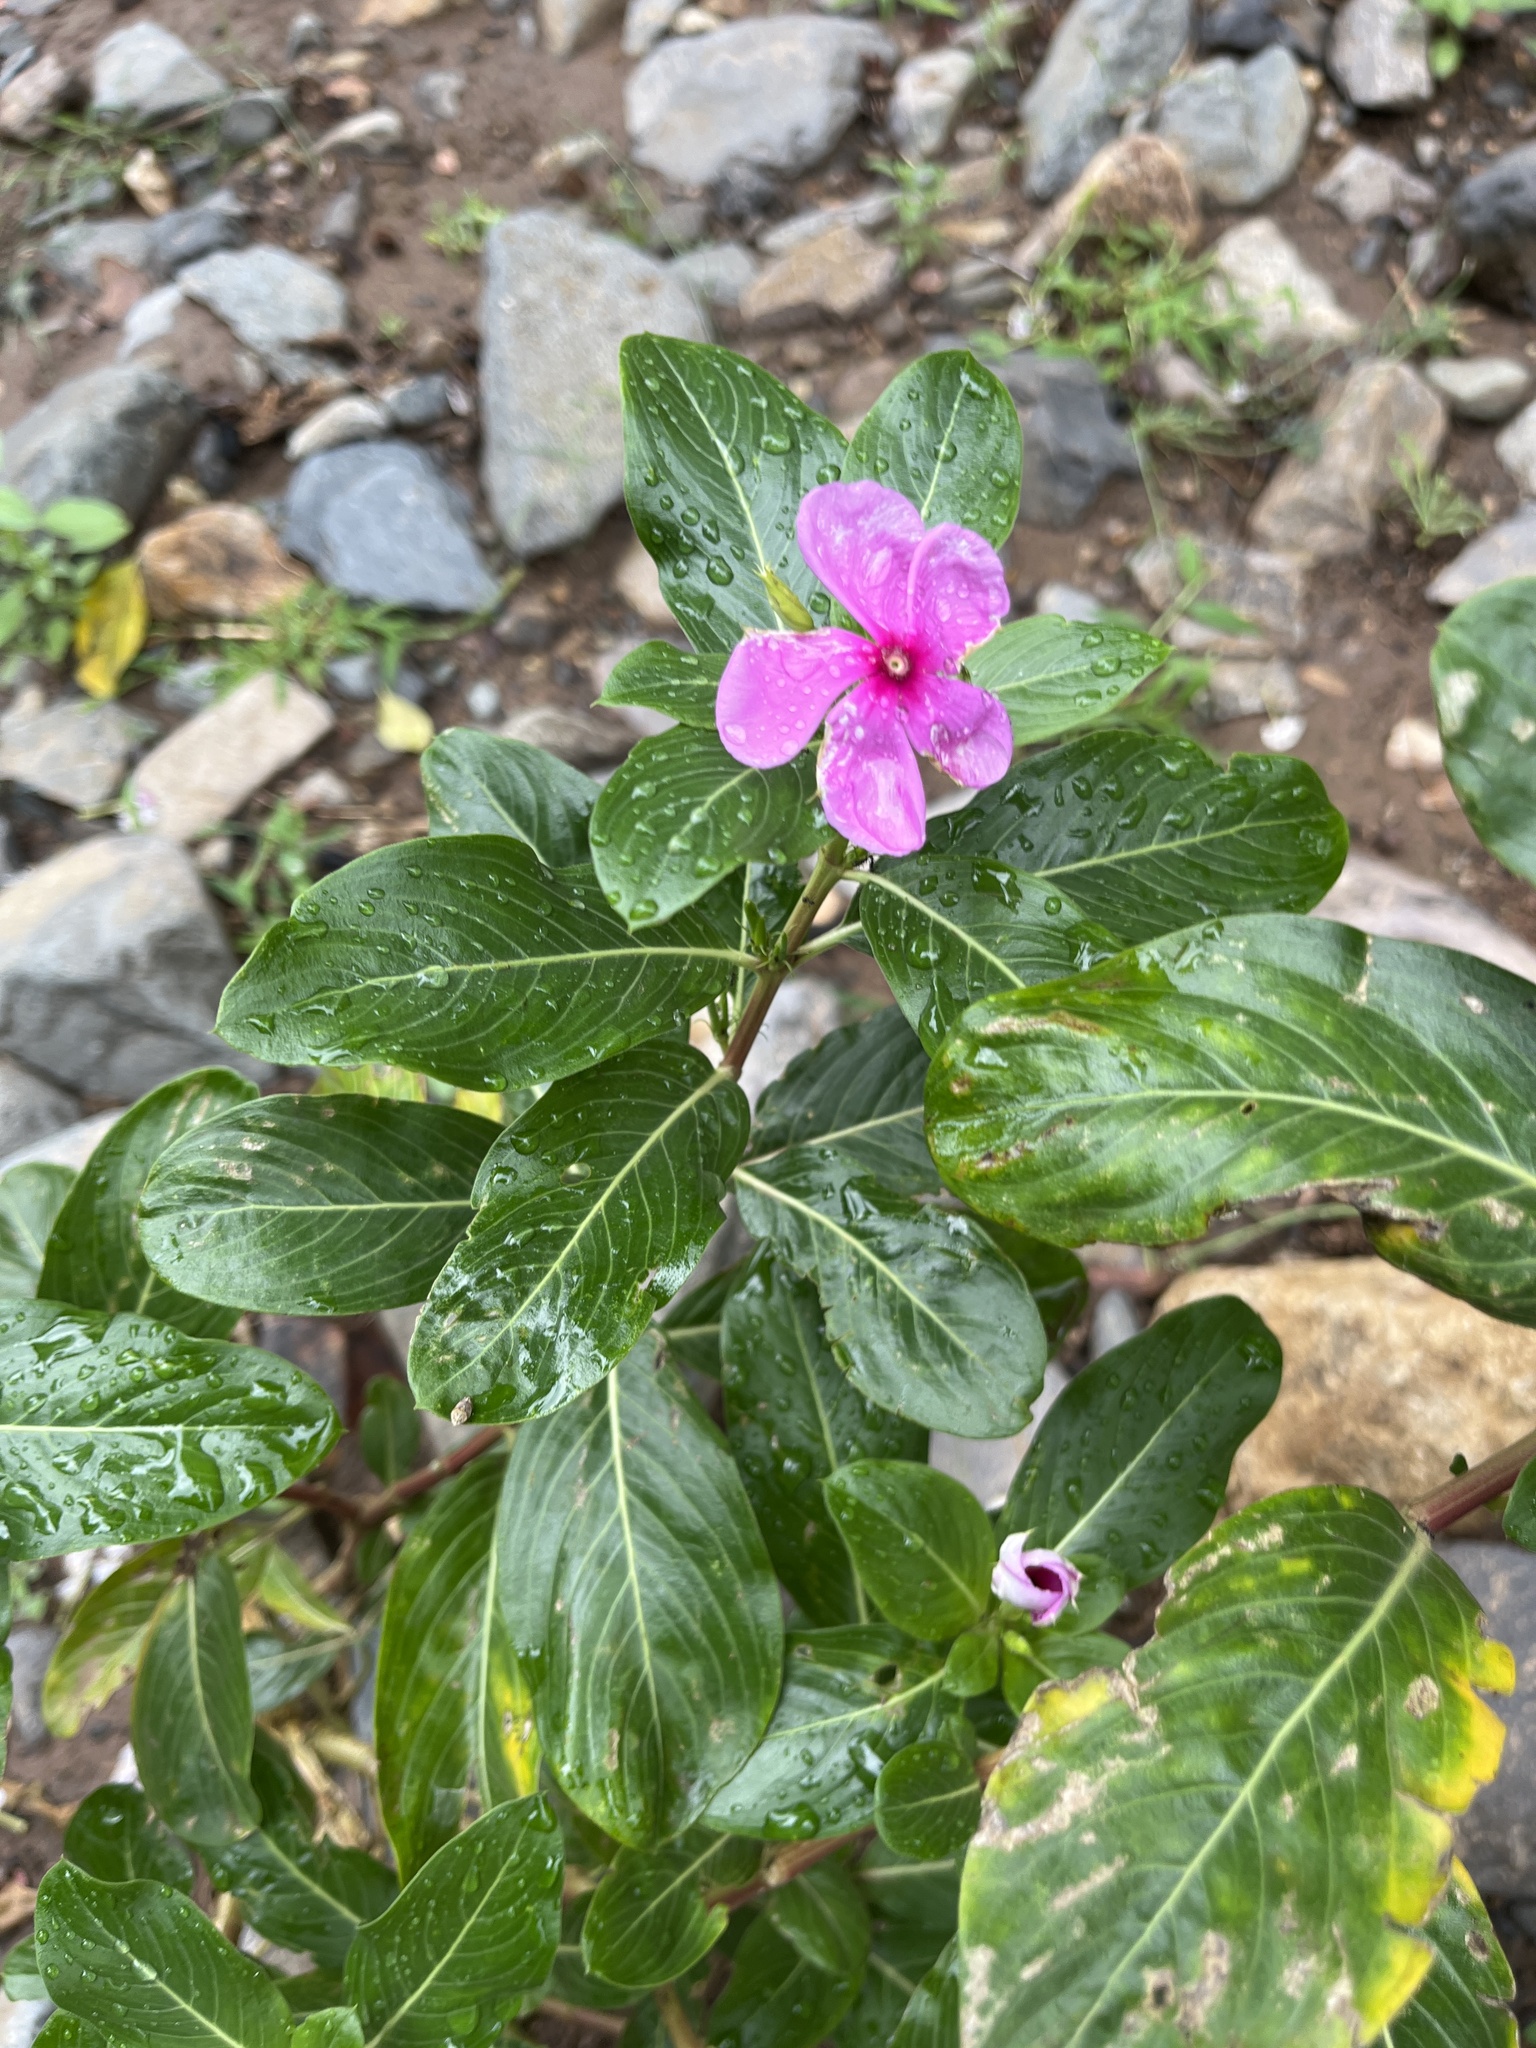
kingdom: Plantae
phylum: Tracheophyta
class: Magnoliopsida
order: Gentianales
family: Apocynaceae
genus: Catharanthus
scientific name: Catharanthus roseus
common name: Madagascar periwinkle
